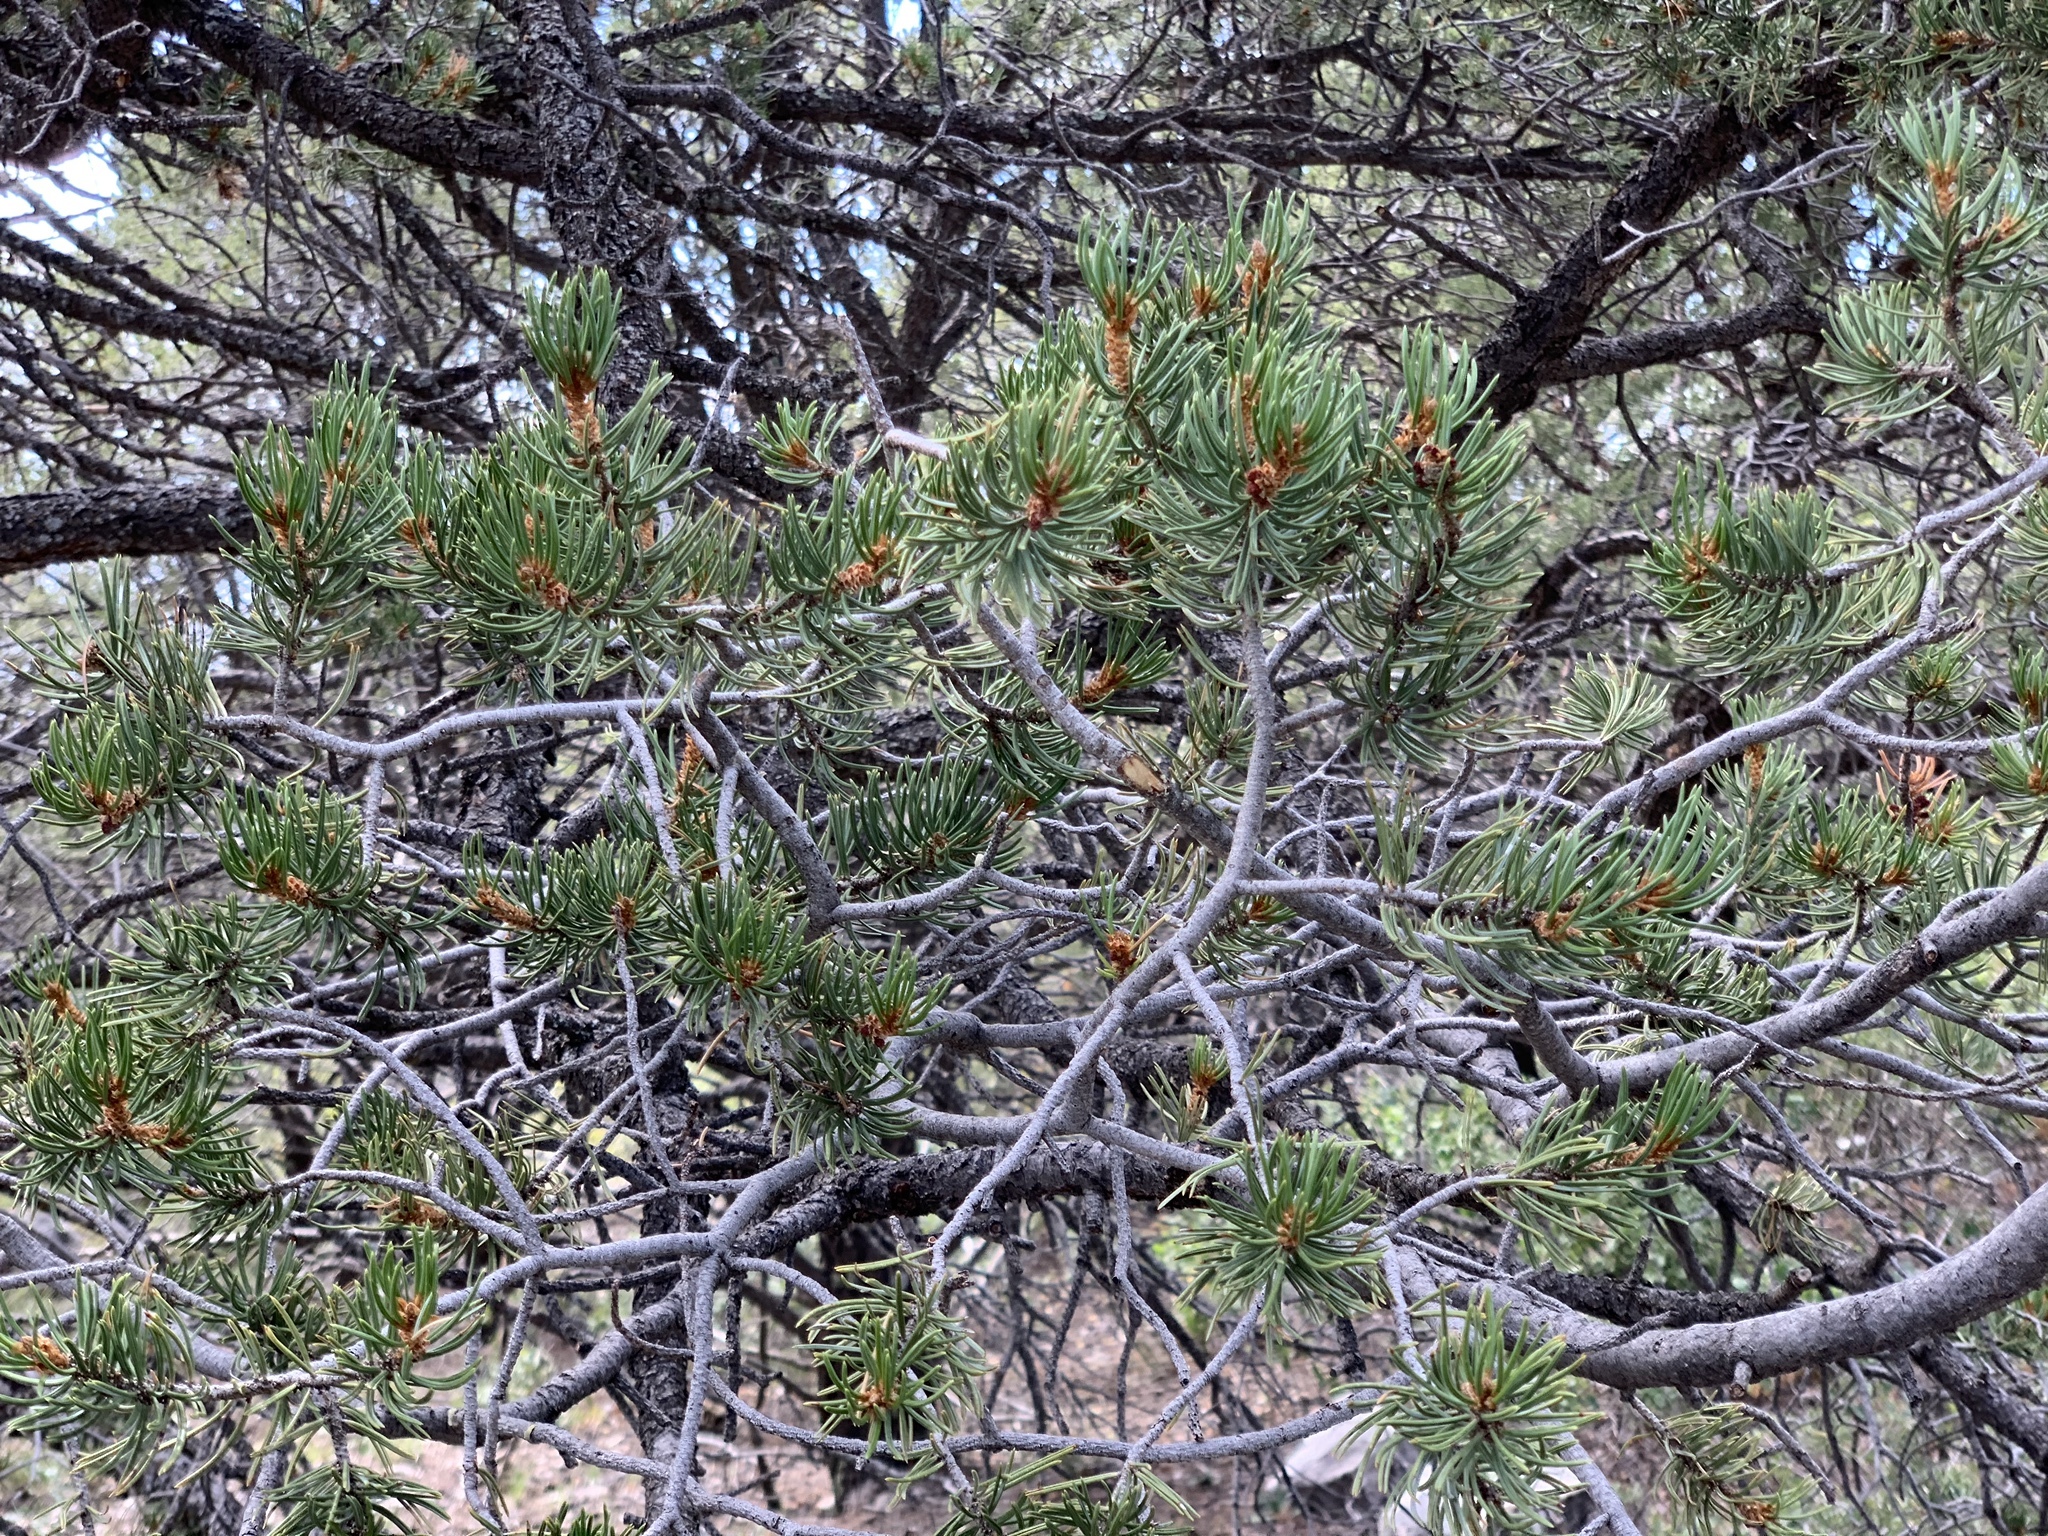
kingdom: Plantae
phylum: Tracheophyta
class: Pinopsida
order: Pinales
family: Pinaceae
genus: Pinus
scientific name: Pinus edulis
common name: Colorado pinyon
